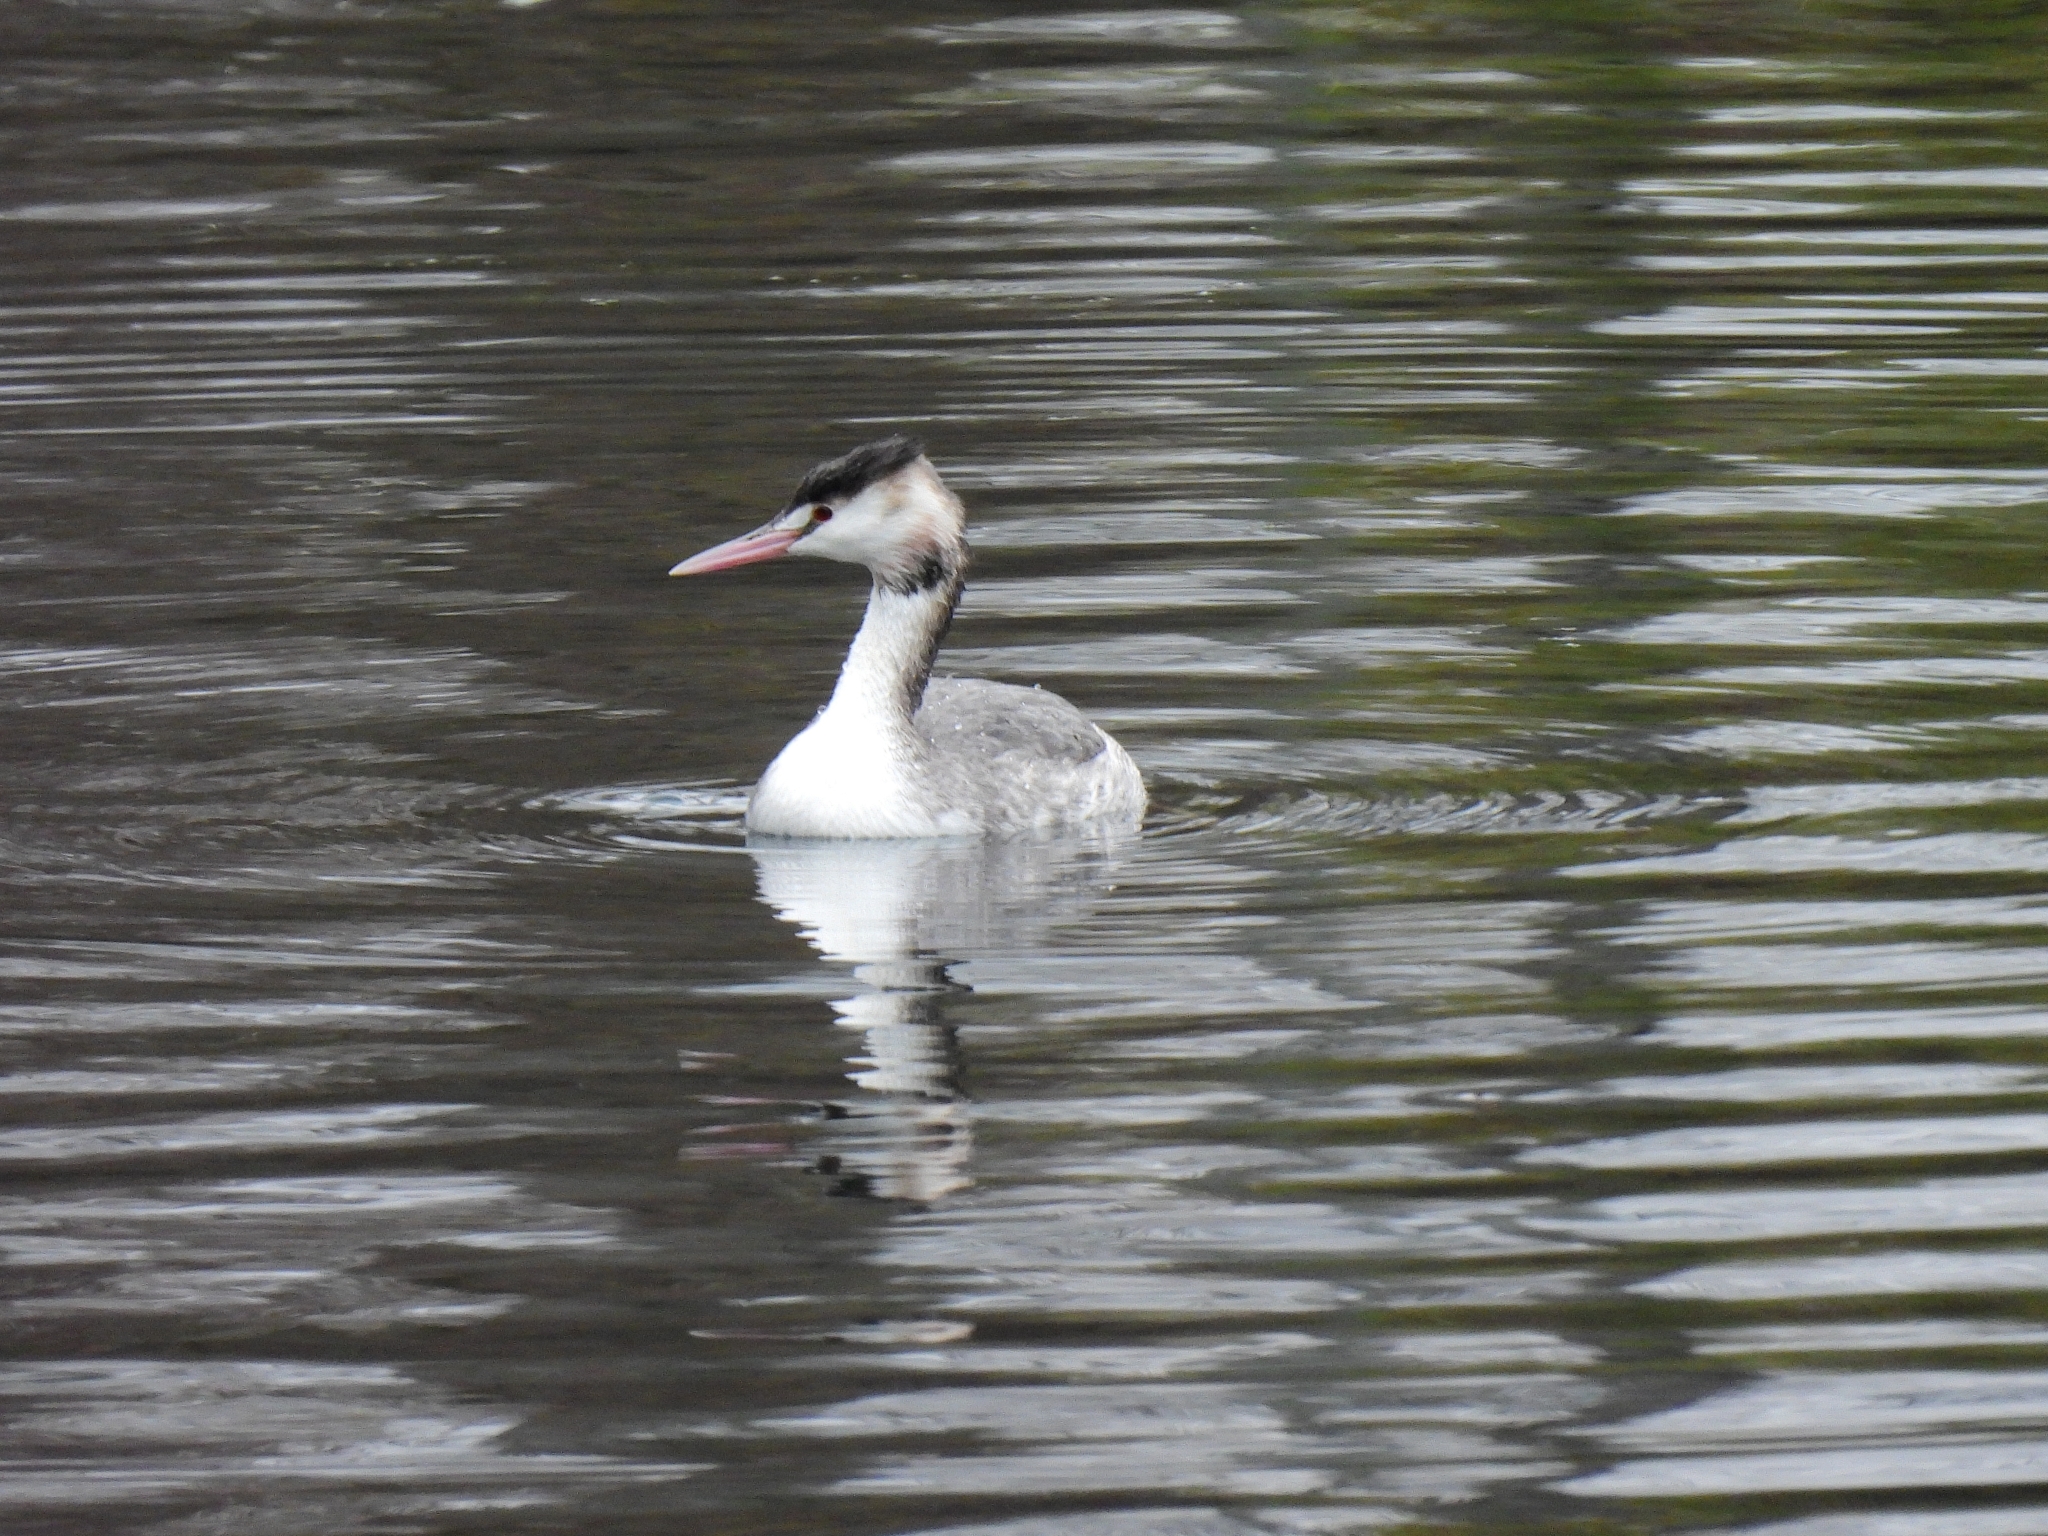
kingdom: Animalia
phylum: Chordata
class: Aves
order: Podicipediformes
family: Podicipedidae
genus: Podiceps
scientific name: Podiceps cristatus
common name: Great crested grebe
